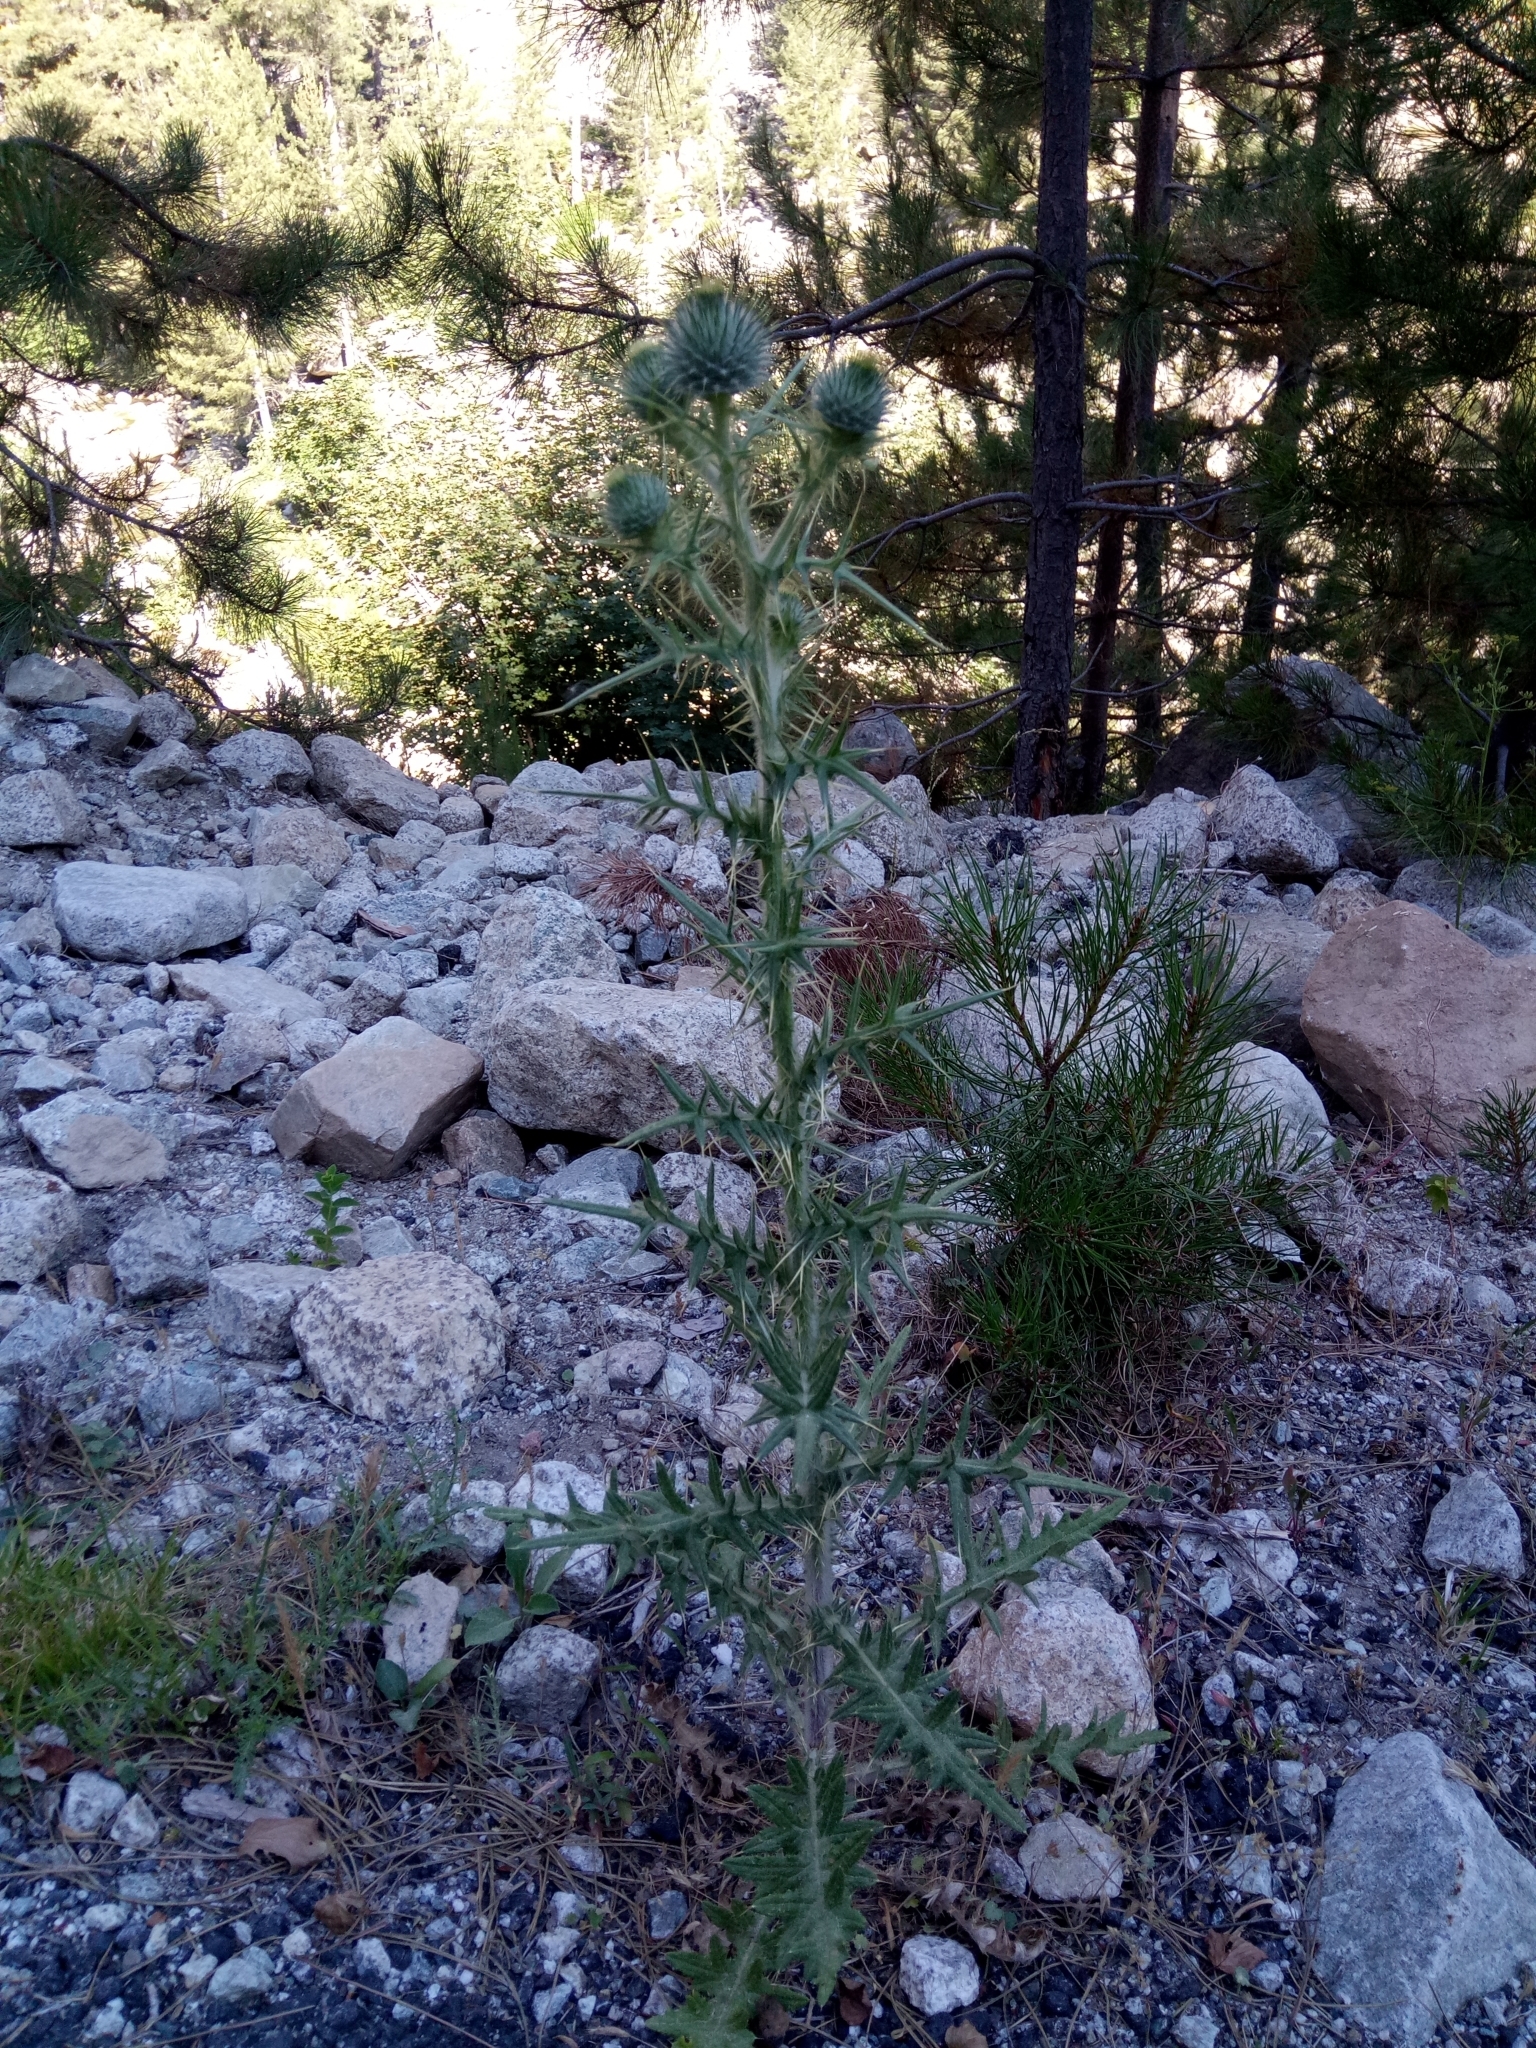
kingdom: Plantae
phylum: Tracheophyta
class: Magnoliopsida
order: Asterales
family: Asteraceae
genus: Cirsium
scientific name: Cirsium vulgare
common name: Bull thistle
